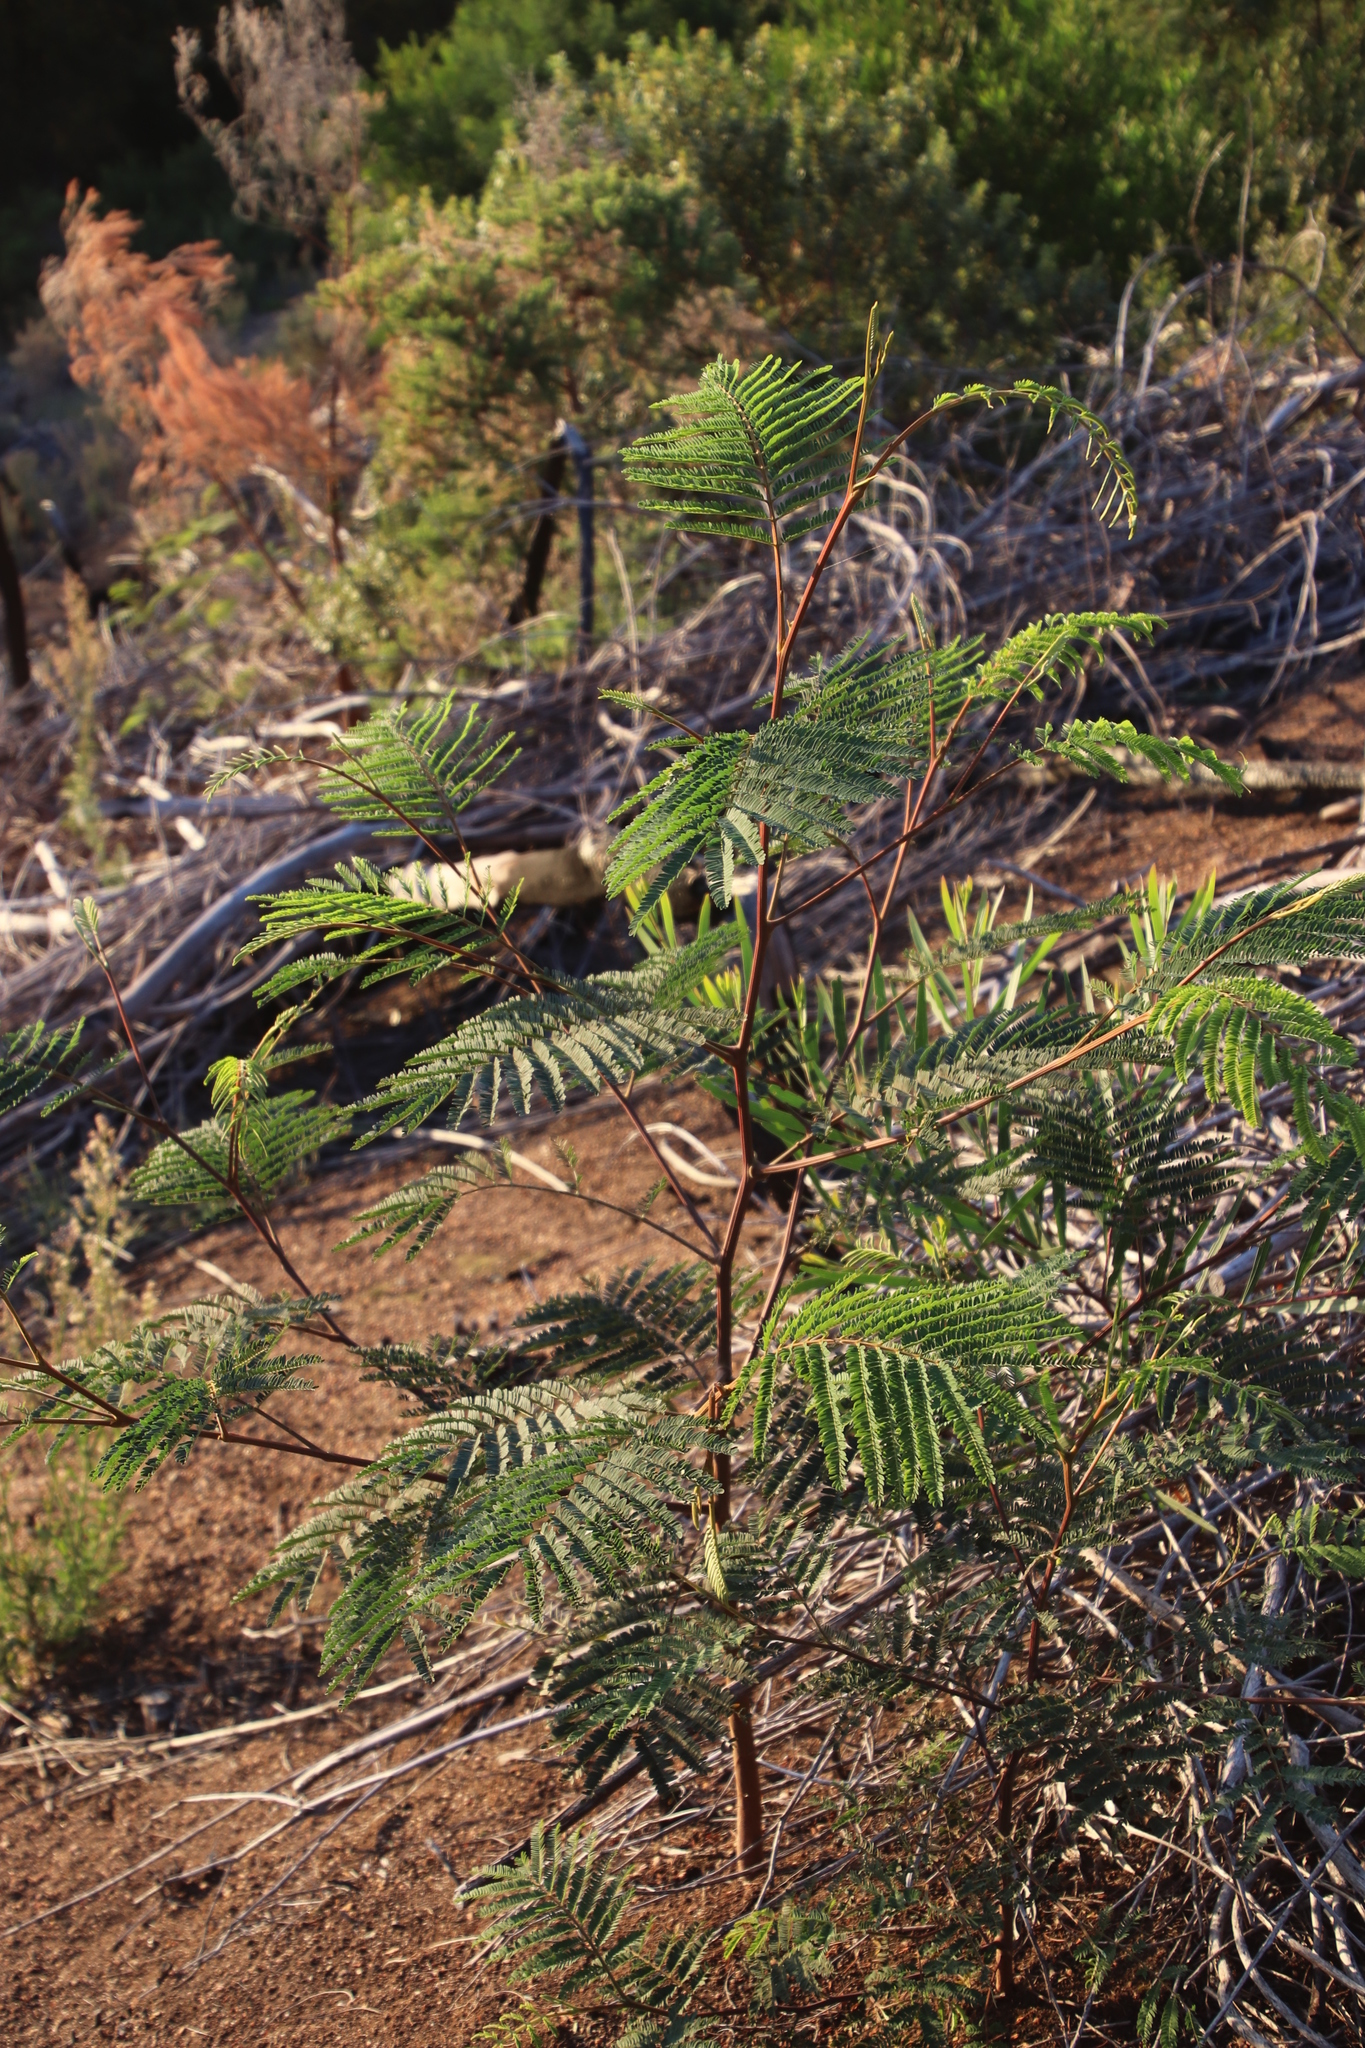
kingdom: Plantae
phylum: Tracheophyta
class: Magnoliopsida
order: Fabales
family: Fabaceae
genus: Paraserianthes
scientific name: Paraserianthes lophantha
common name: Plume albizia
